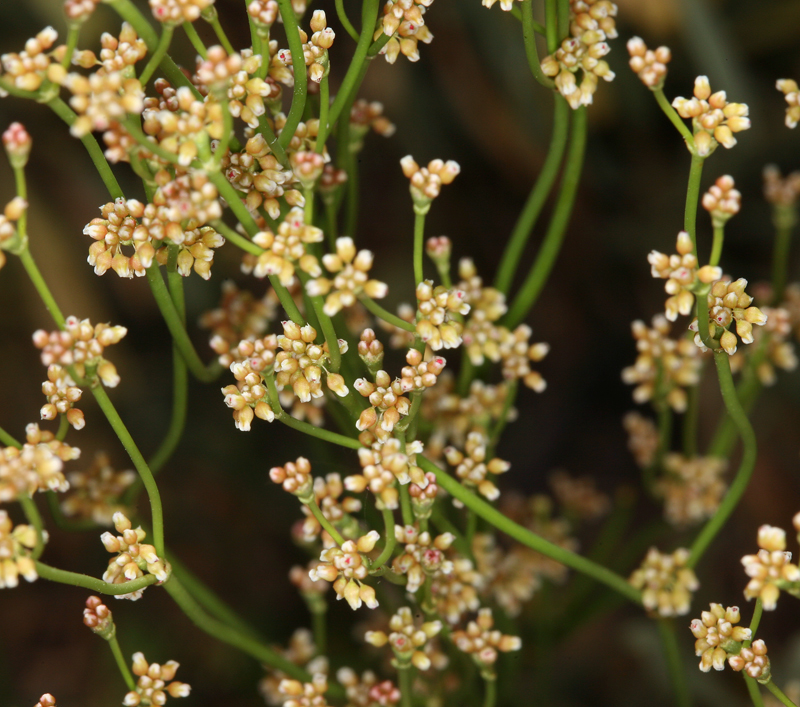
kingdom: Plantae
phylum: Tracheophyta
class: Magnoliopsida
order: Caryophyllales
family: Polygonaceae
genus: Eriogonum
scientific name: Eriogonum ampullaceum
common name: Mono wild buckwheat
